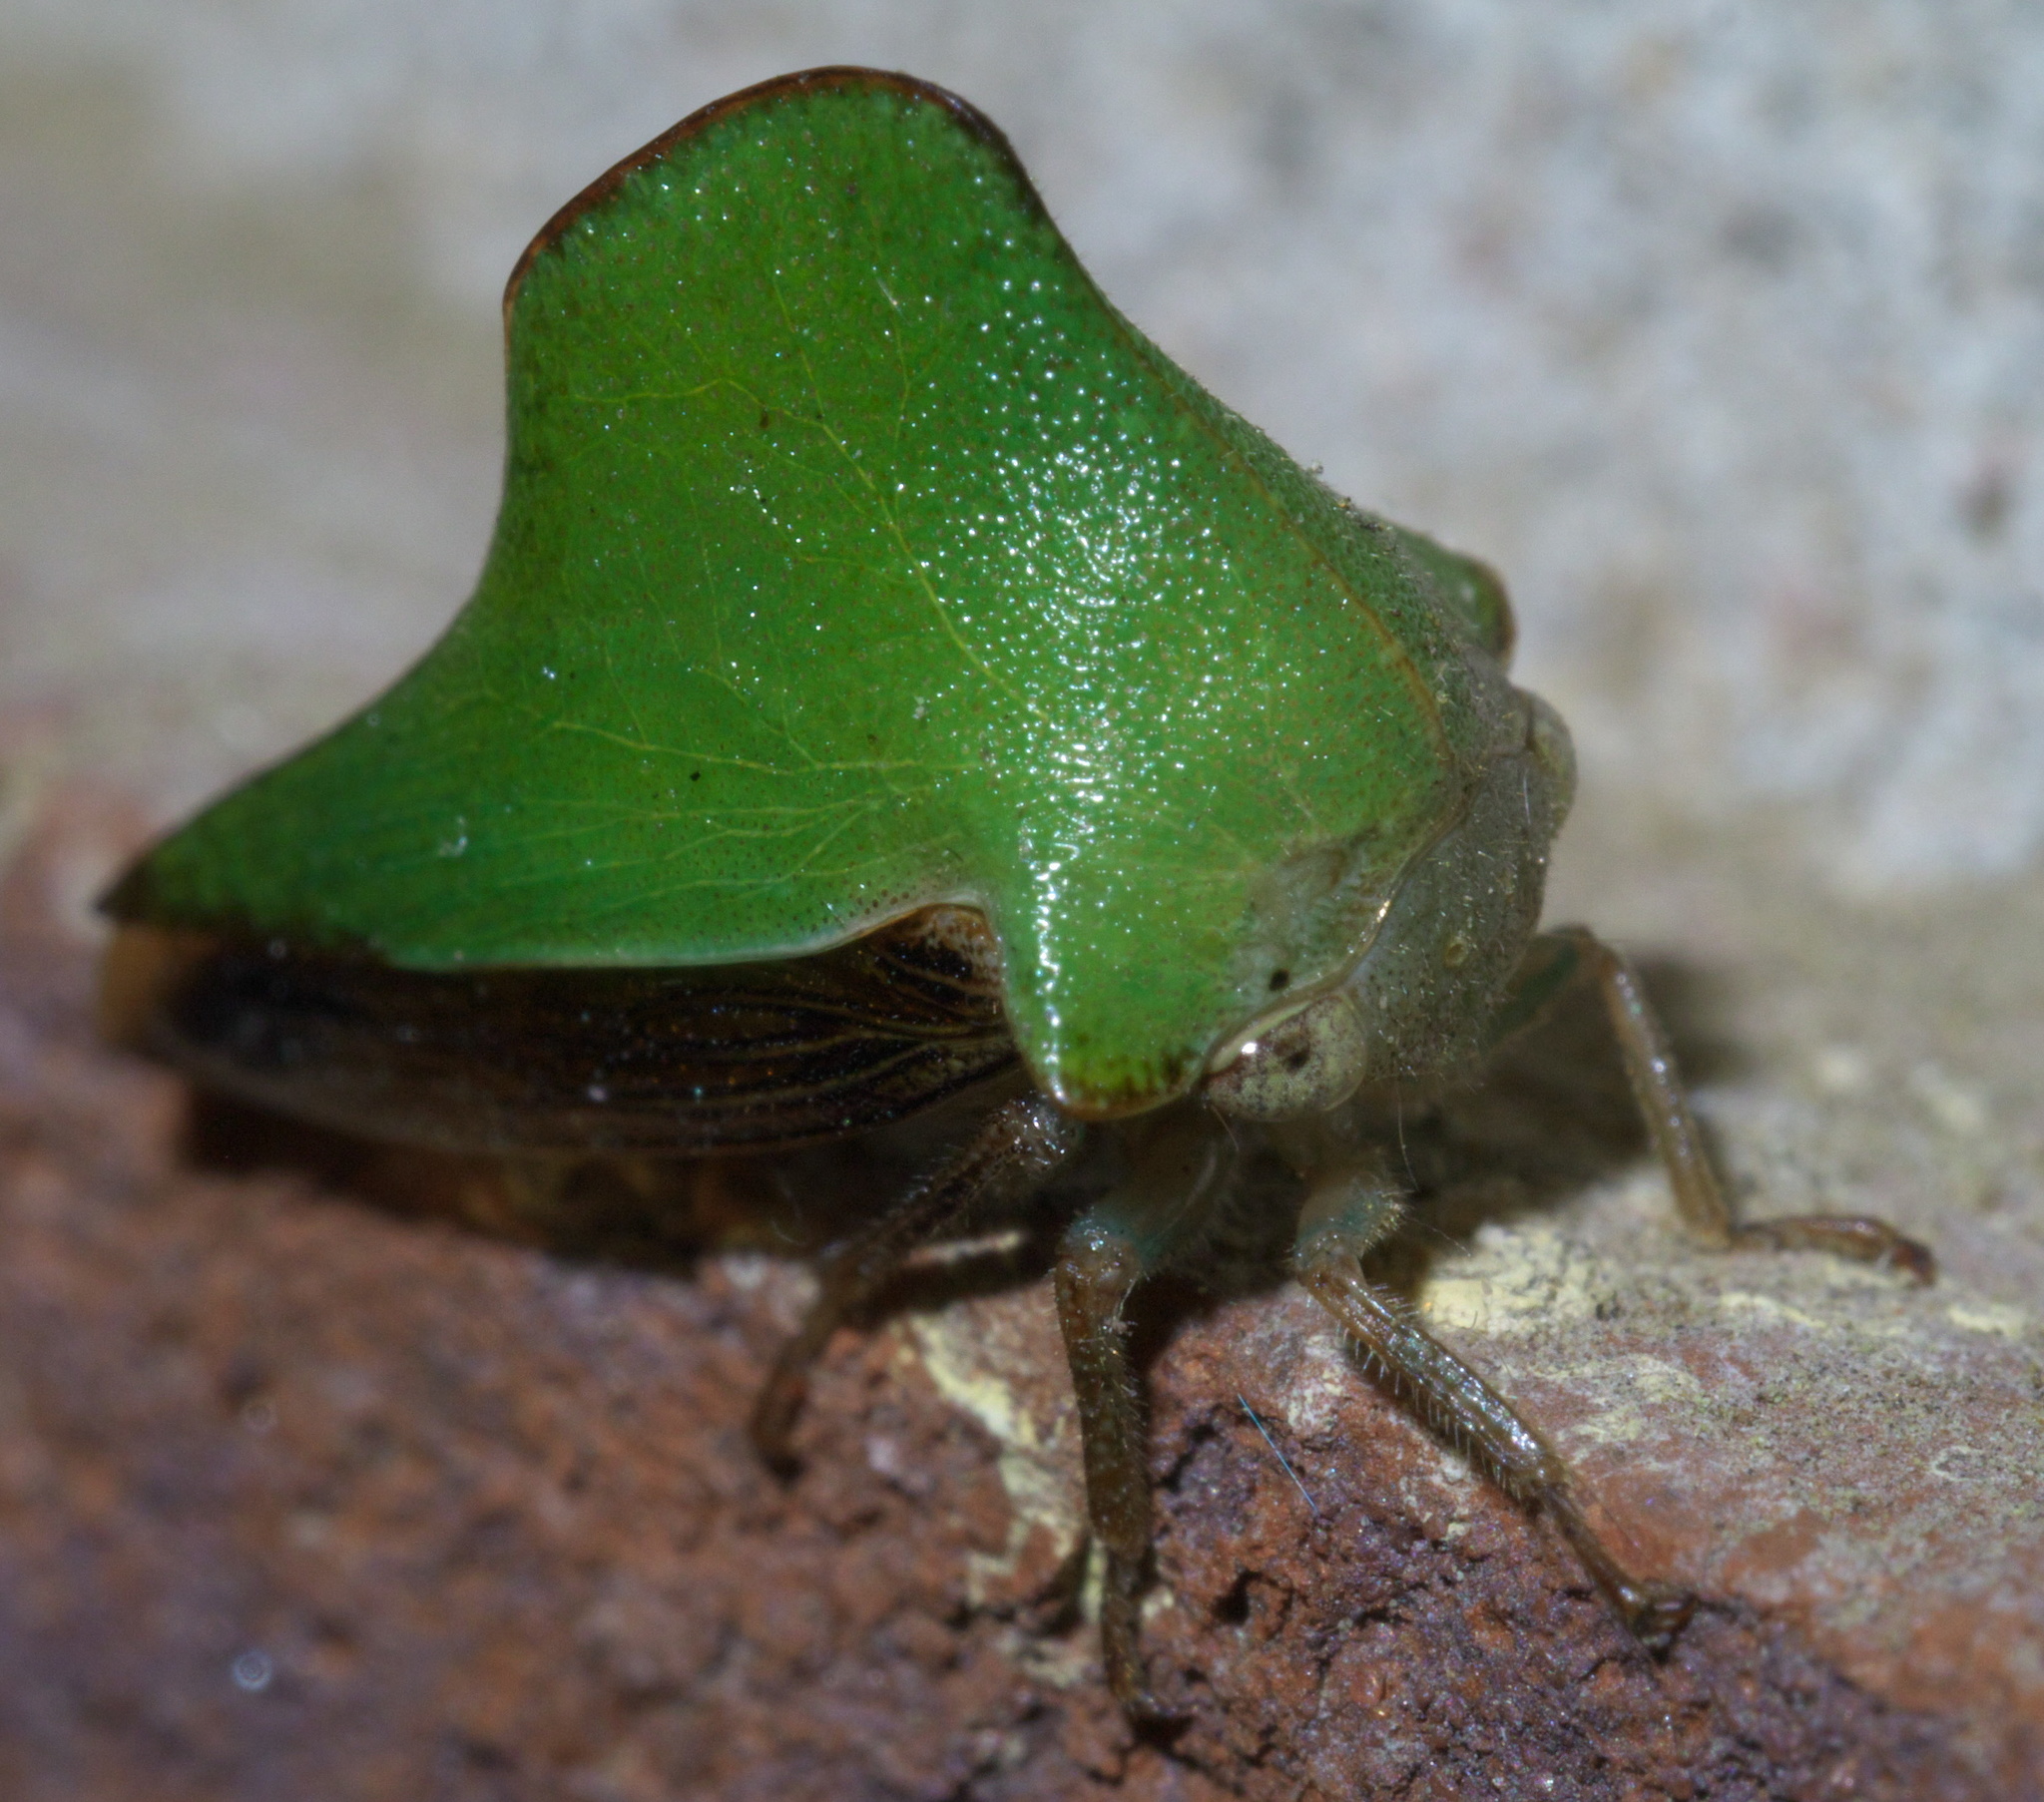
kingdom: Animalia
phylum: Arthropoda
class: Insecta
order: Hemiptera
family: Membracidae
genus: Helonica
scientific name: Helonica excelsa
